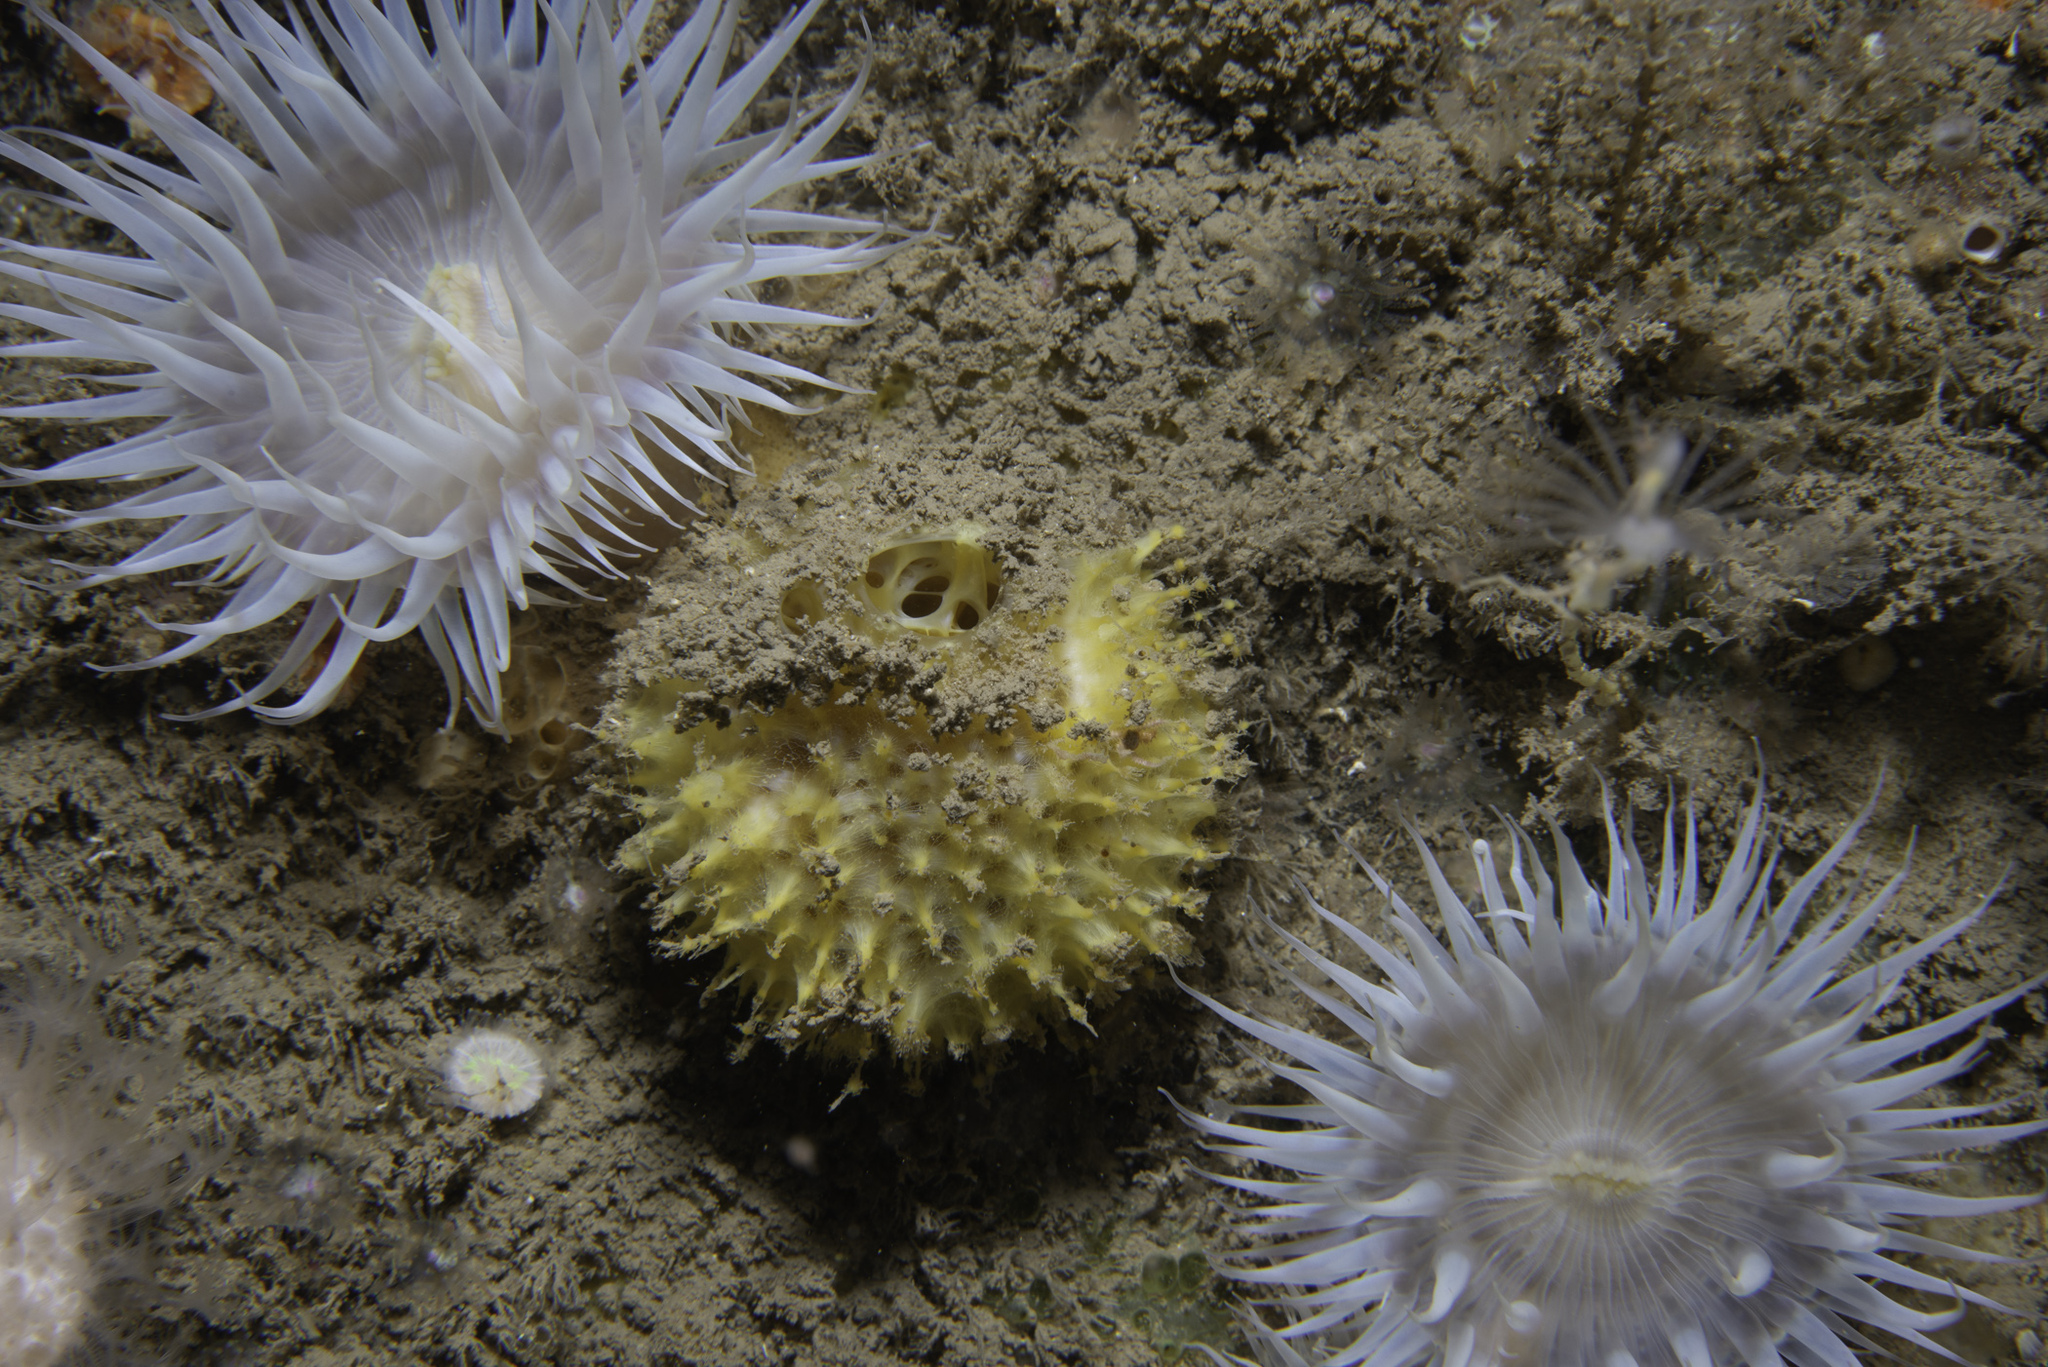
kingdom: Animalia
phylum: Porifera
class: Demospongiae
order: Tethyida
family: Tethyidae
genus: Tethya
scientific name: Tethya citrina
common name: Sea lemon
